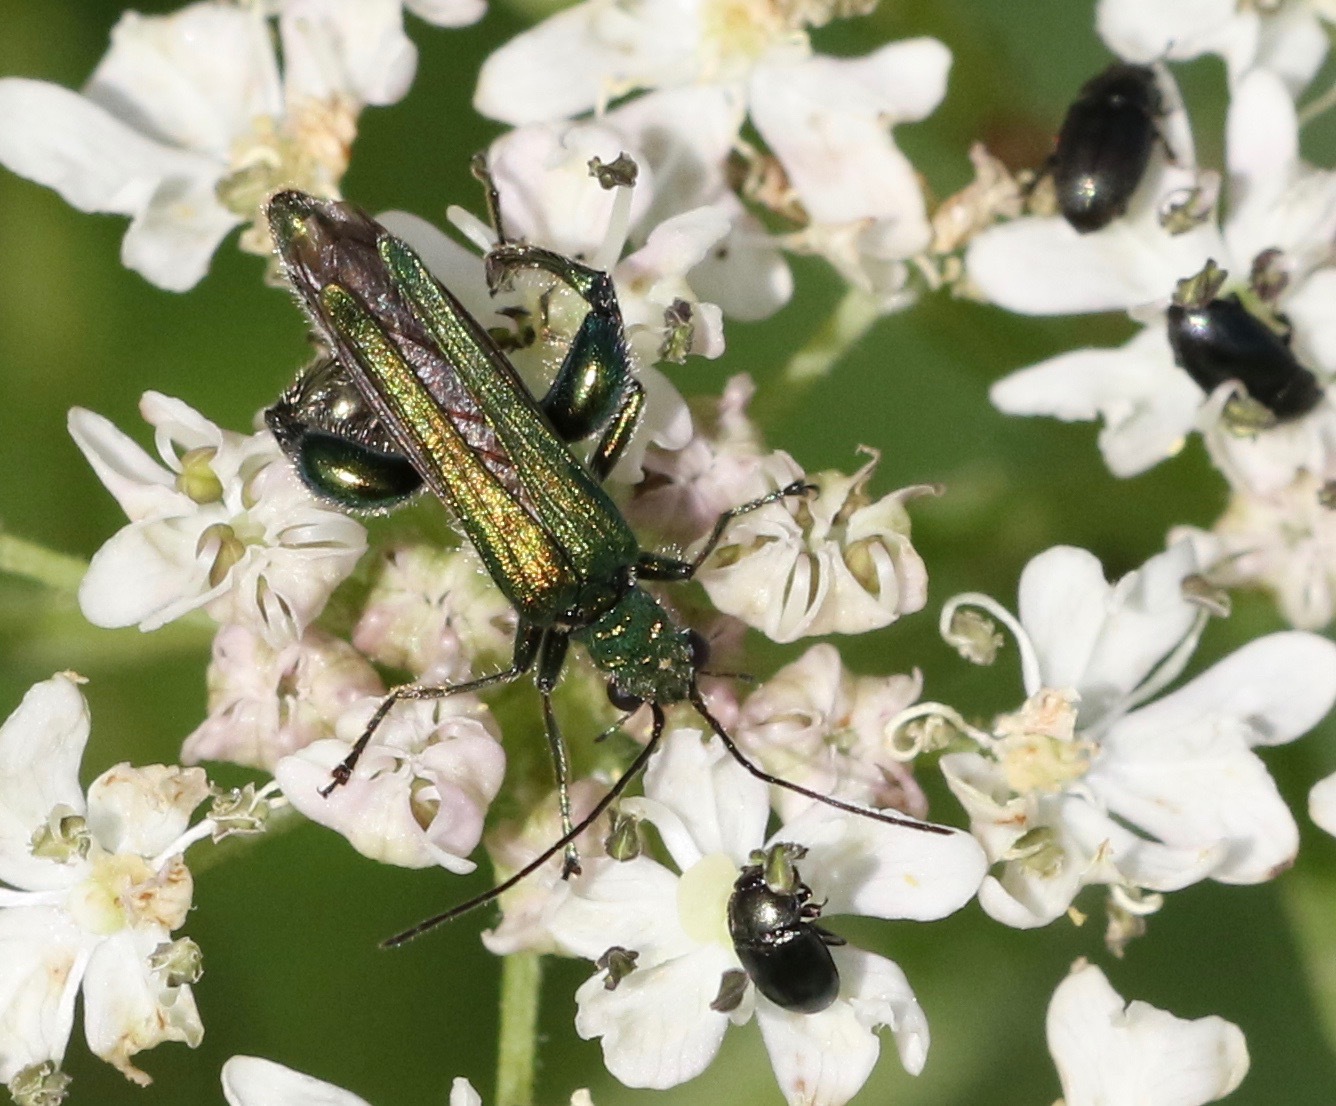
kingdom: Animalia
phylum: Arthropoda
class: Insecta
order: Coleoptera
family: Oedemeridae
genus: Oedemera
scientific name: Oedemera nobilis
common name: Swollen-thighed beetle
